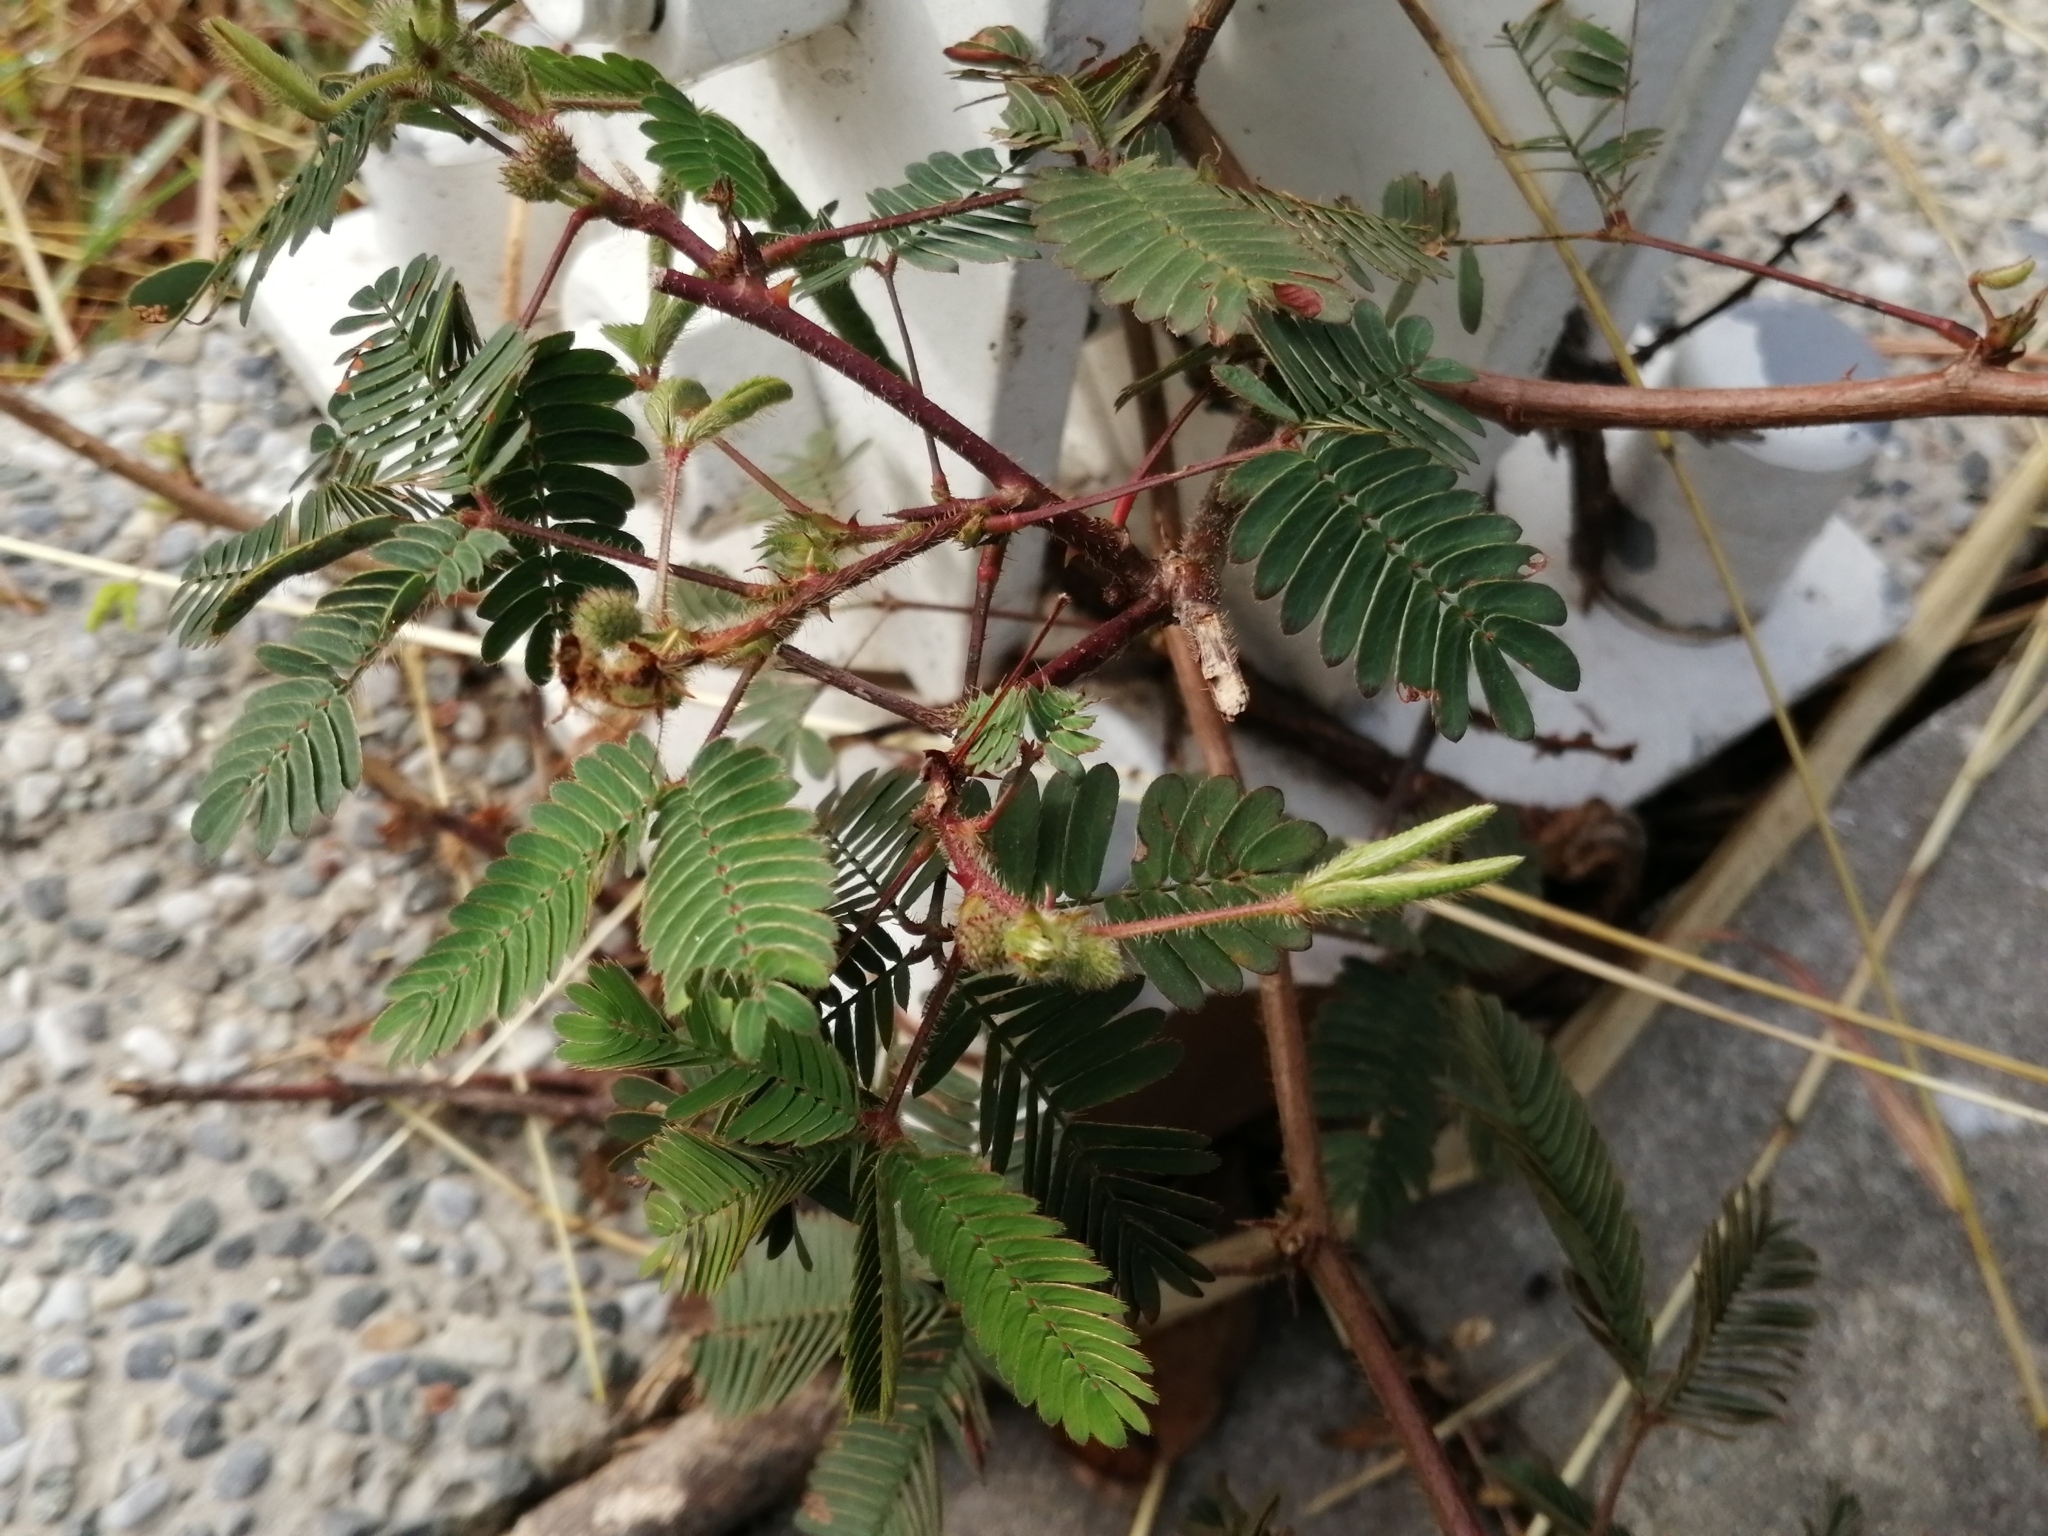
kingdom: Plantae
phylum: Tracheophyta
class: Magnoliopsida
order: Fabales
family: Fabaceae
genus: Mimosa
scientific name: Mimosa pudica
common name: Sensitive plant
